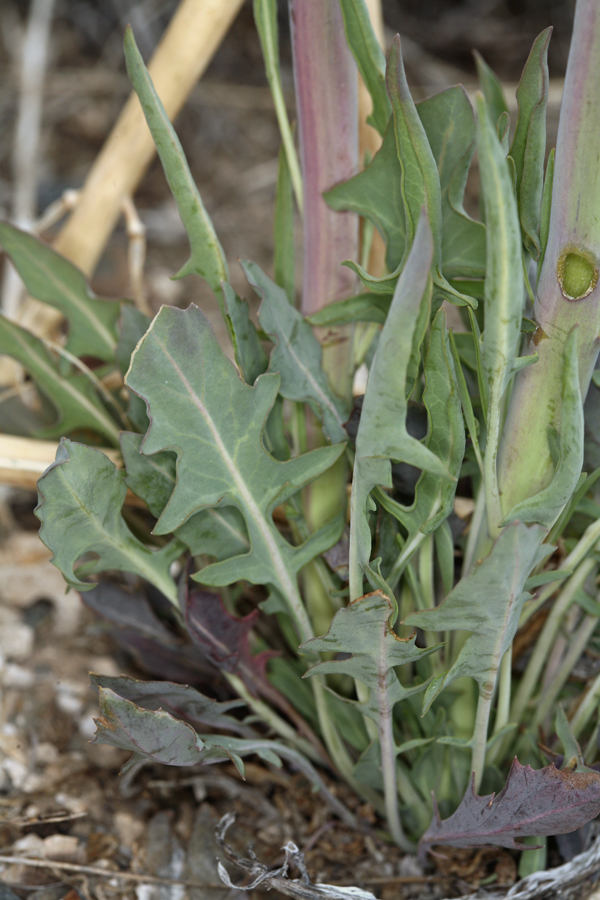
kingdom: Plantae
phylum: Tracheophyta
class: Magnoliopsida
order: Brassicales
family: Brassicaceae
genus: Streptanthus
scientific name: Streptanthus crassicaulis
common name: Thick-stem wild cabbage
